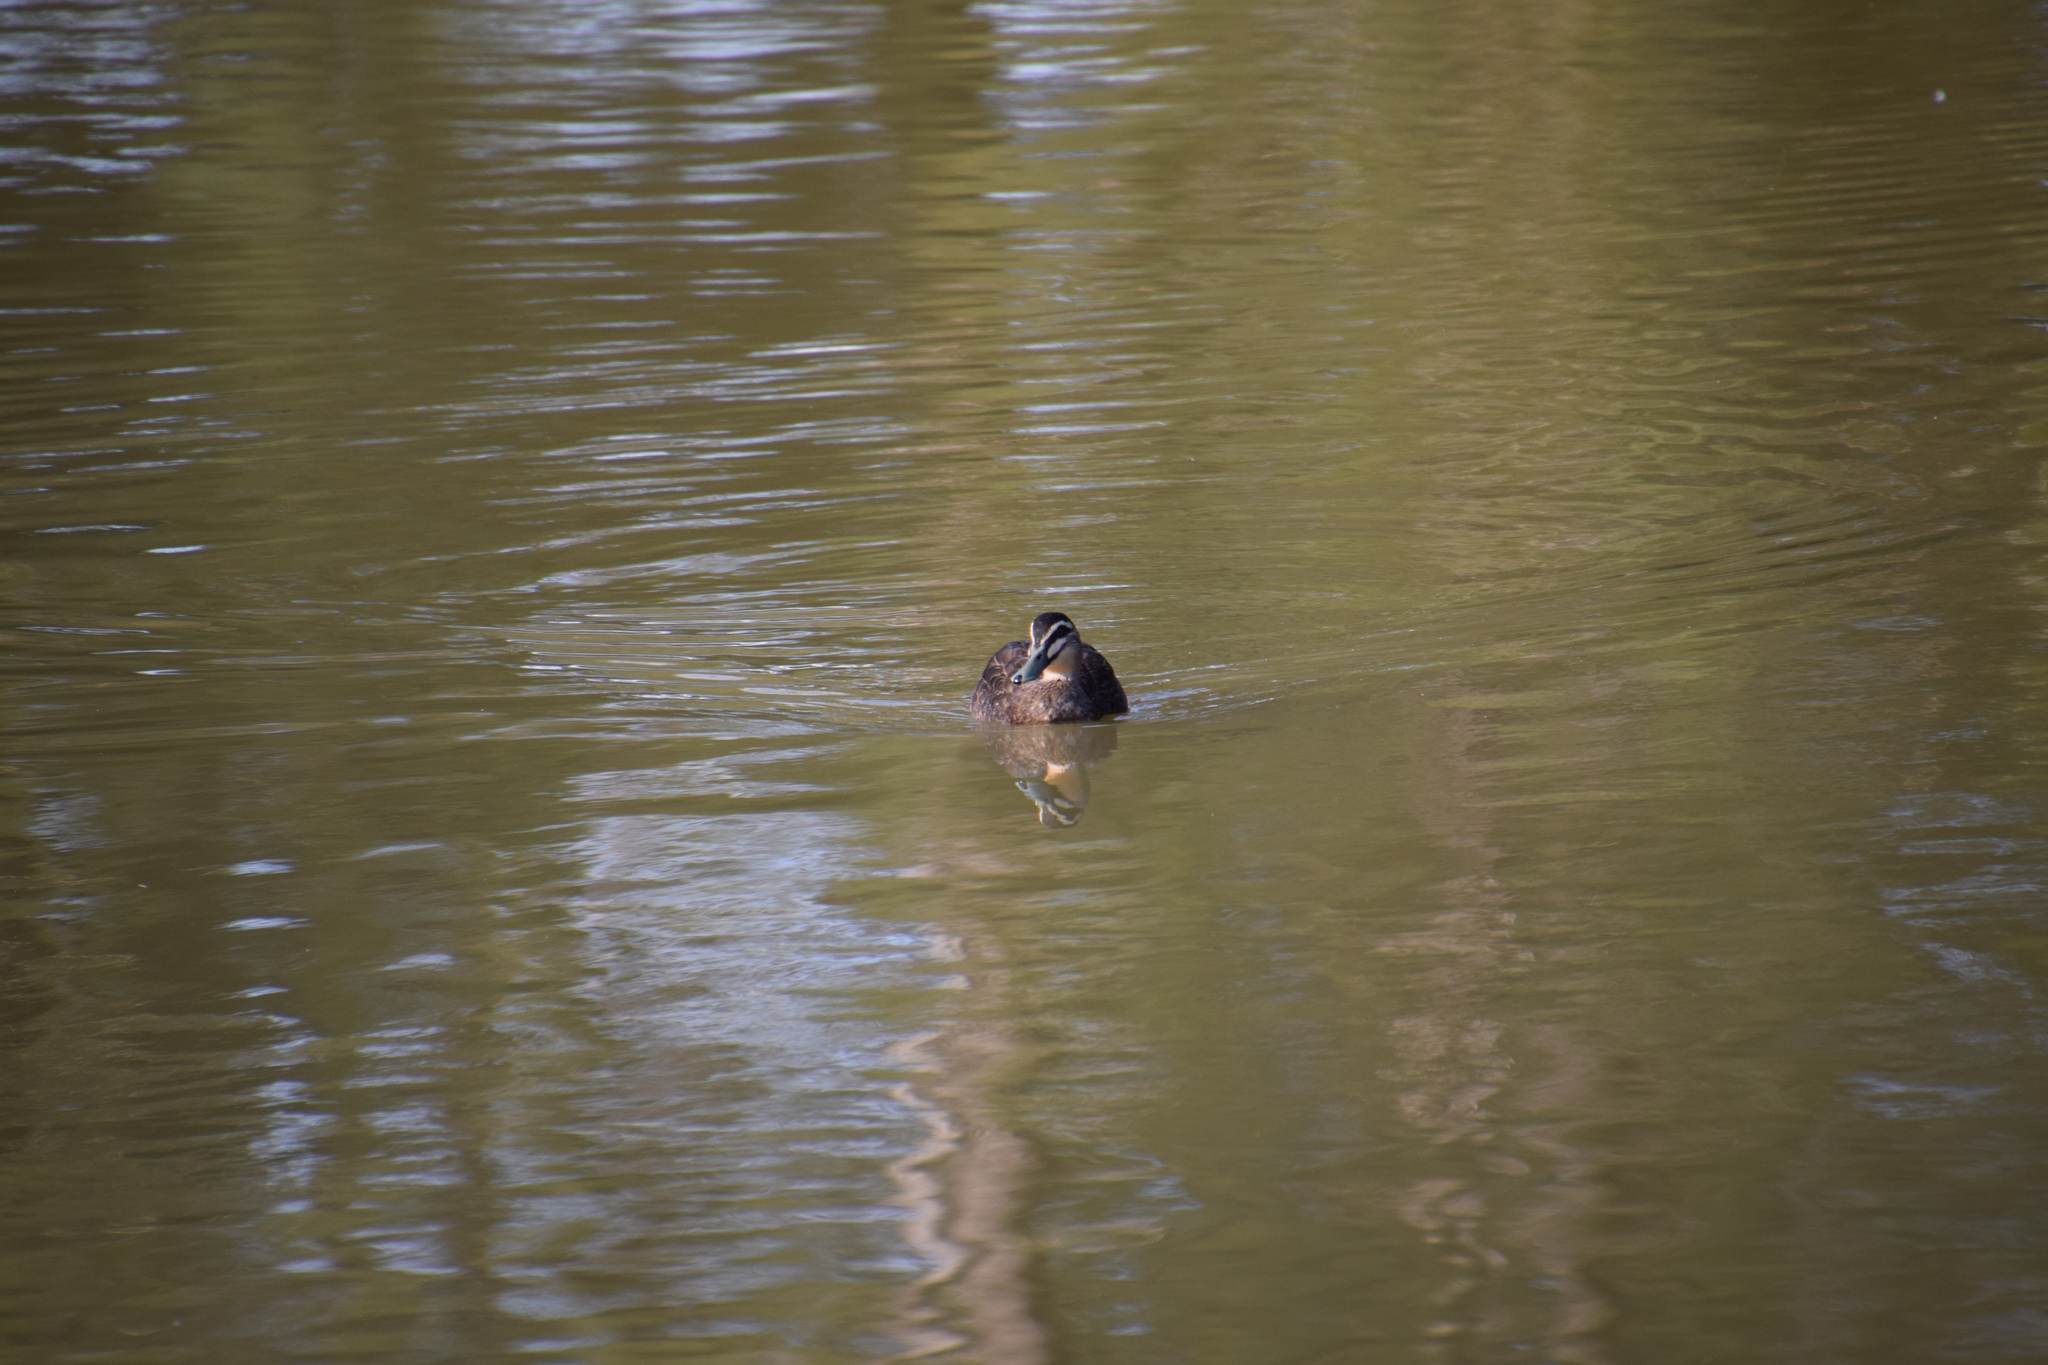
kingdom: Animalia
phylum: Chordata
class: Aves
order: Anseriformes
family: Anatidae
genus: Anas
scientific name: Anas superciliosa
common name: Pacific black duck
